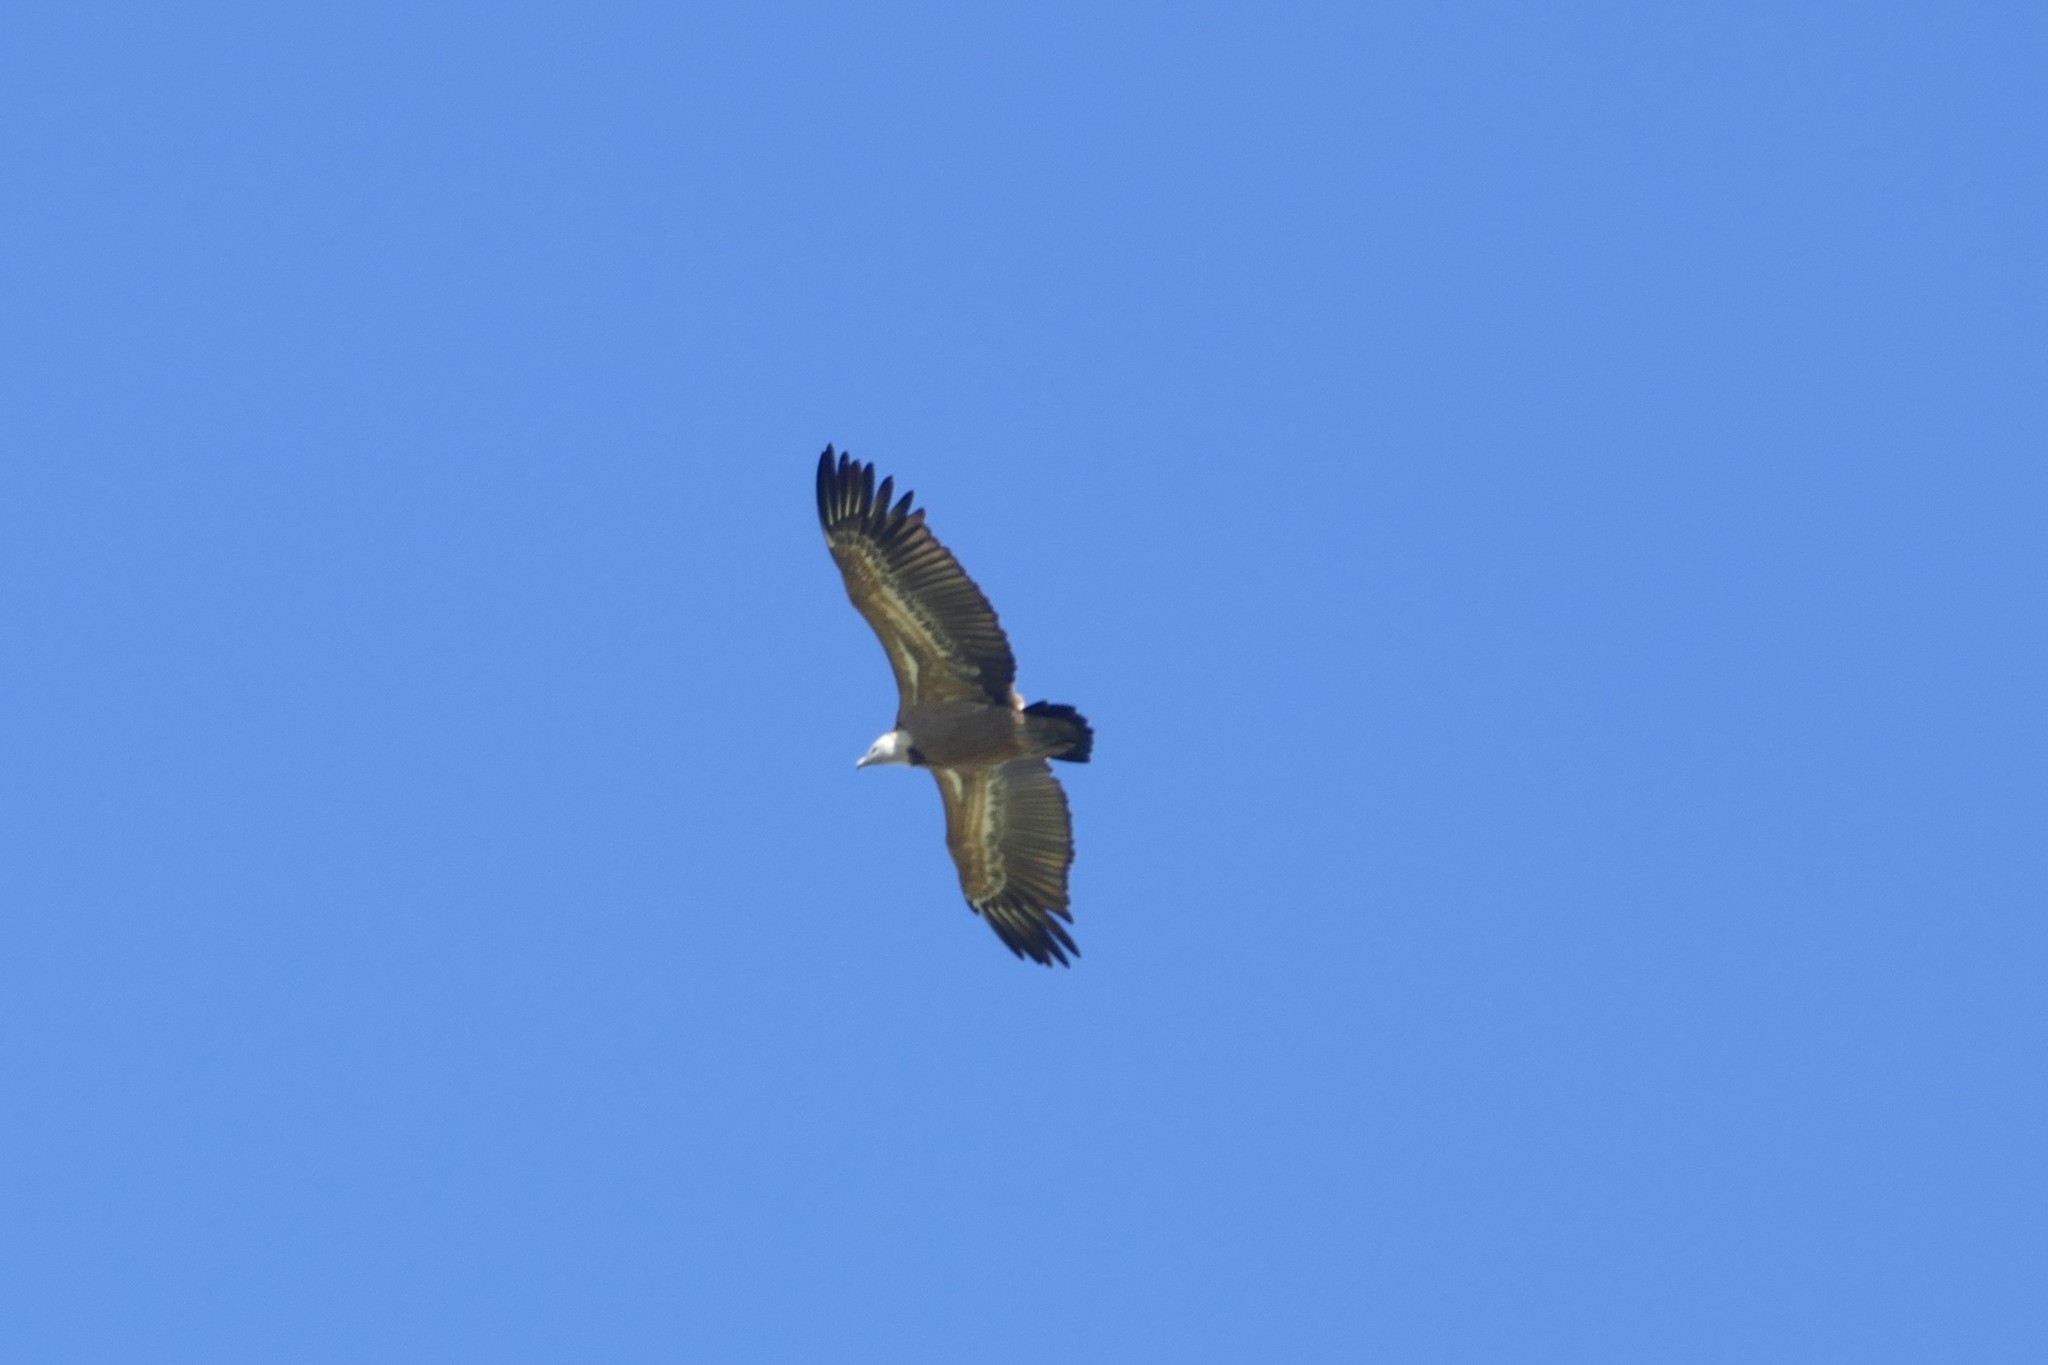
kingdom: Animalia
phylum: Chordata
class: Aves
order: Accipitriformes
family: Accipitridae
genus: Gyps
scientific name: Gyps fulvus
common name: Griffon vulture
